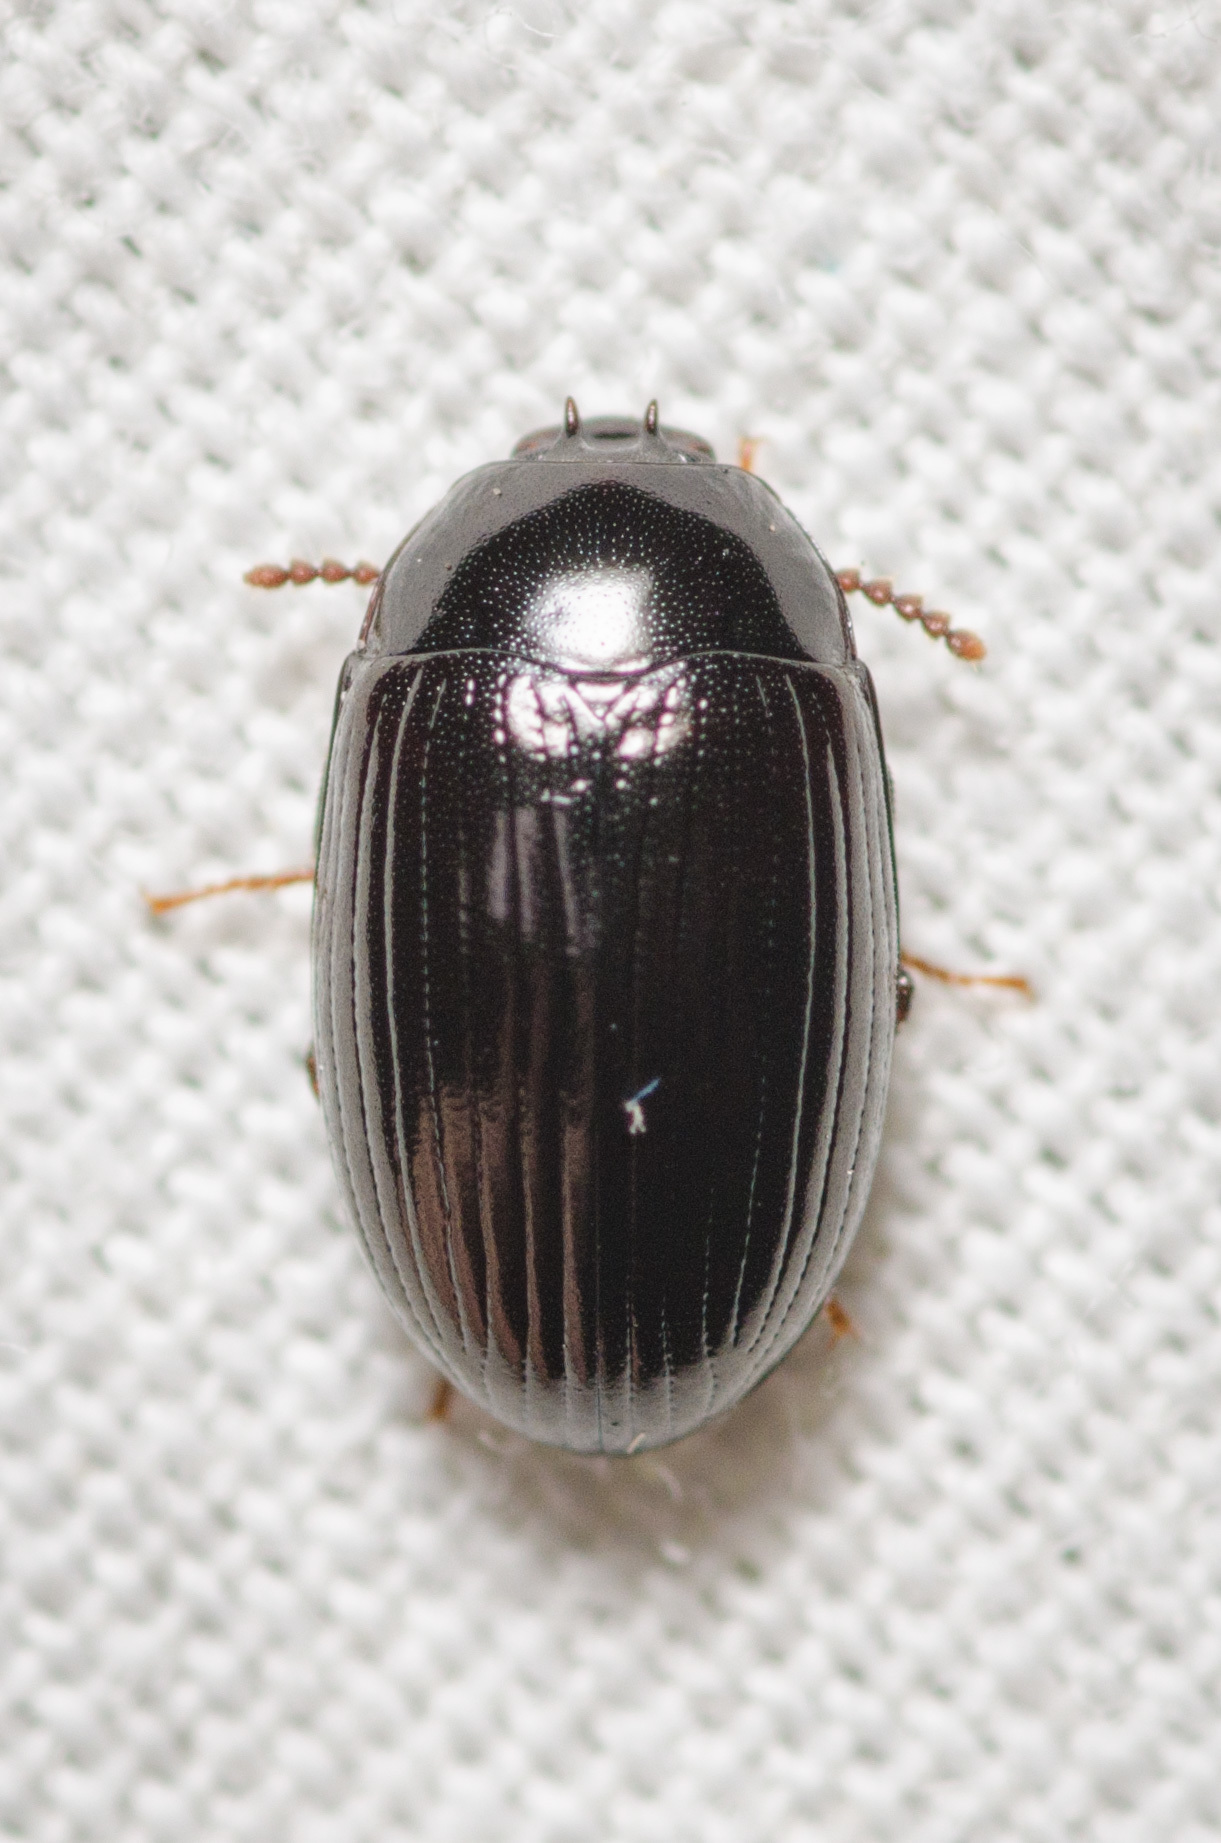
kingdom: Animalia
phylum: Arthropoda
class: Insecta
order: Coleoptera
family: Tenebrionidae
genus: Platydema
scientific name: Platydema excavata
